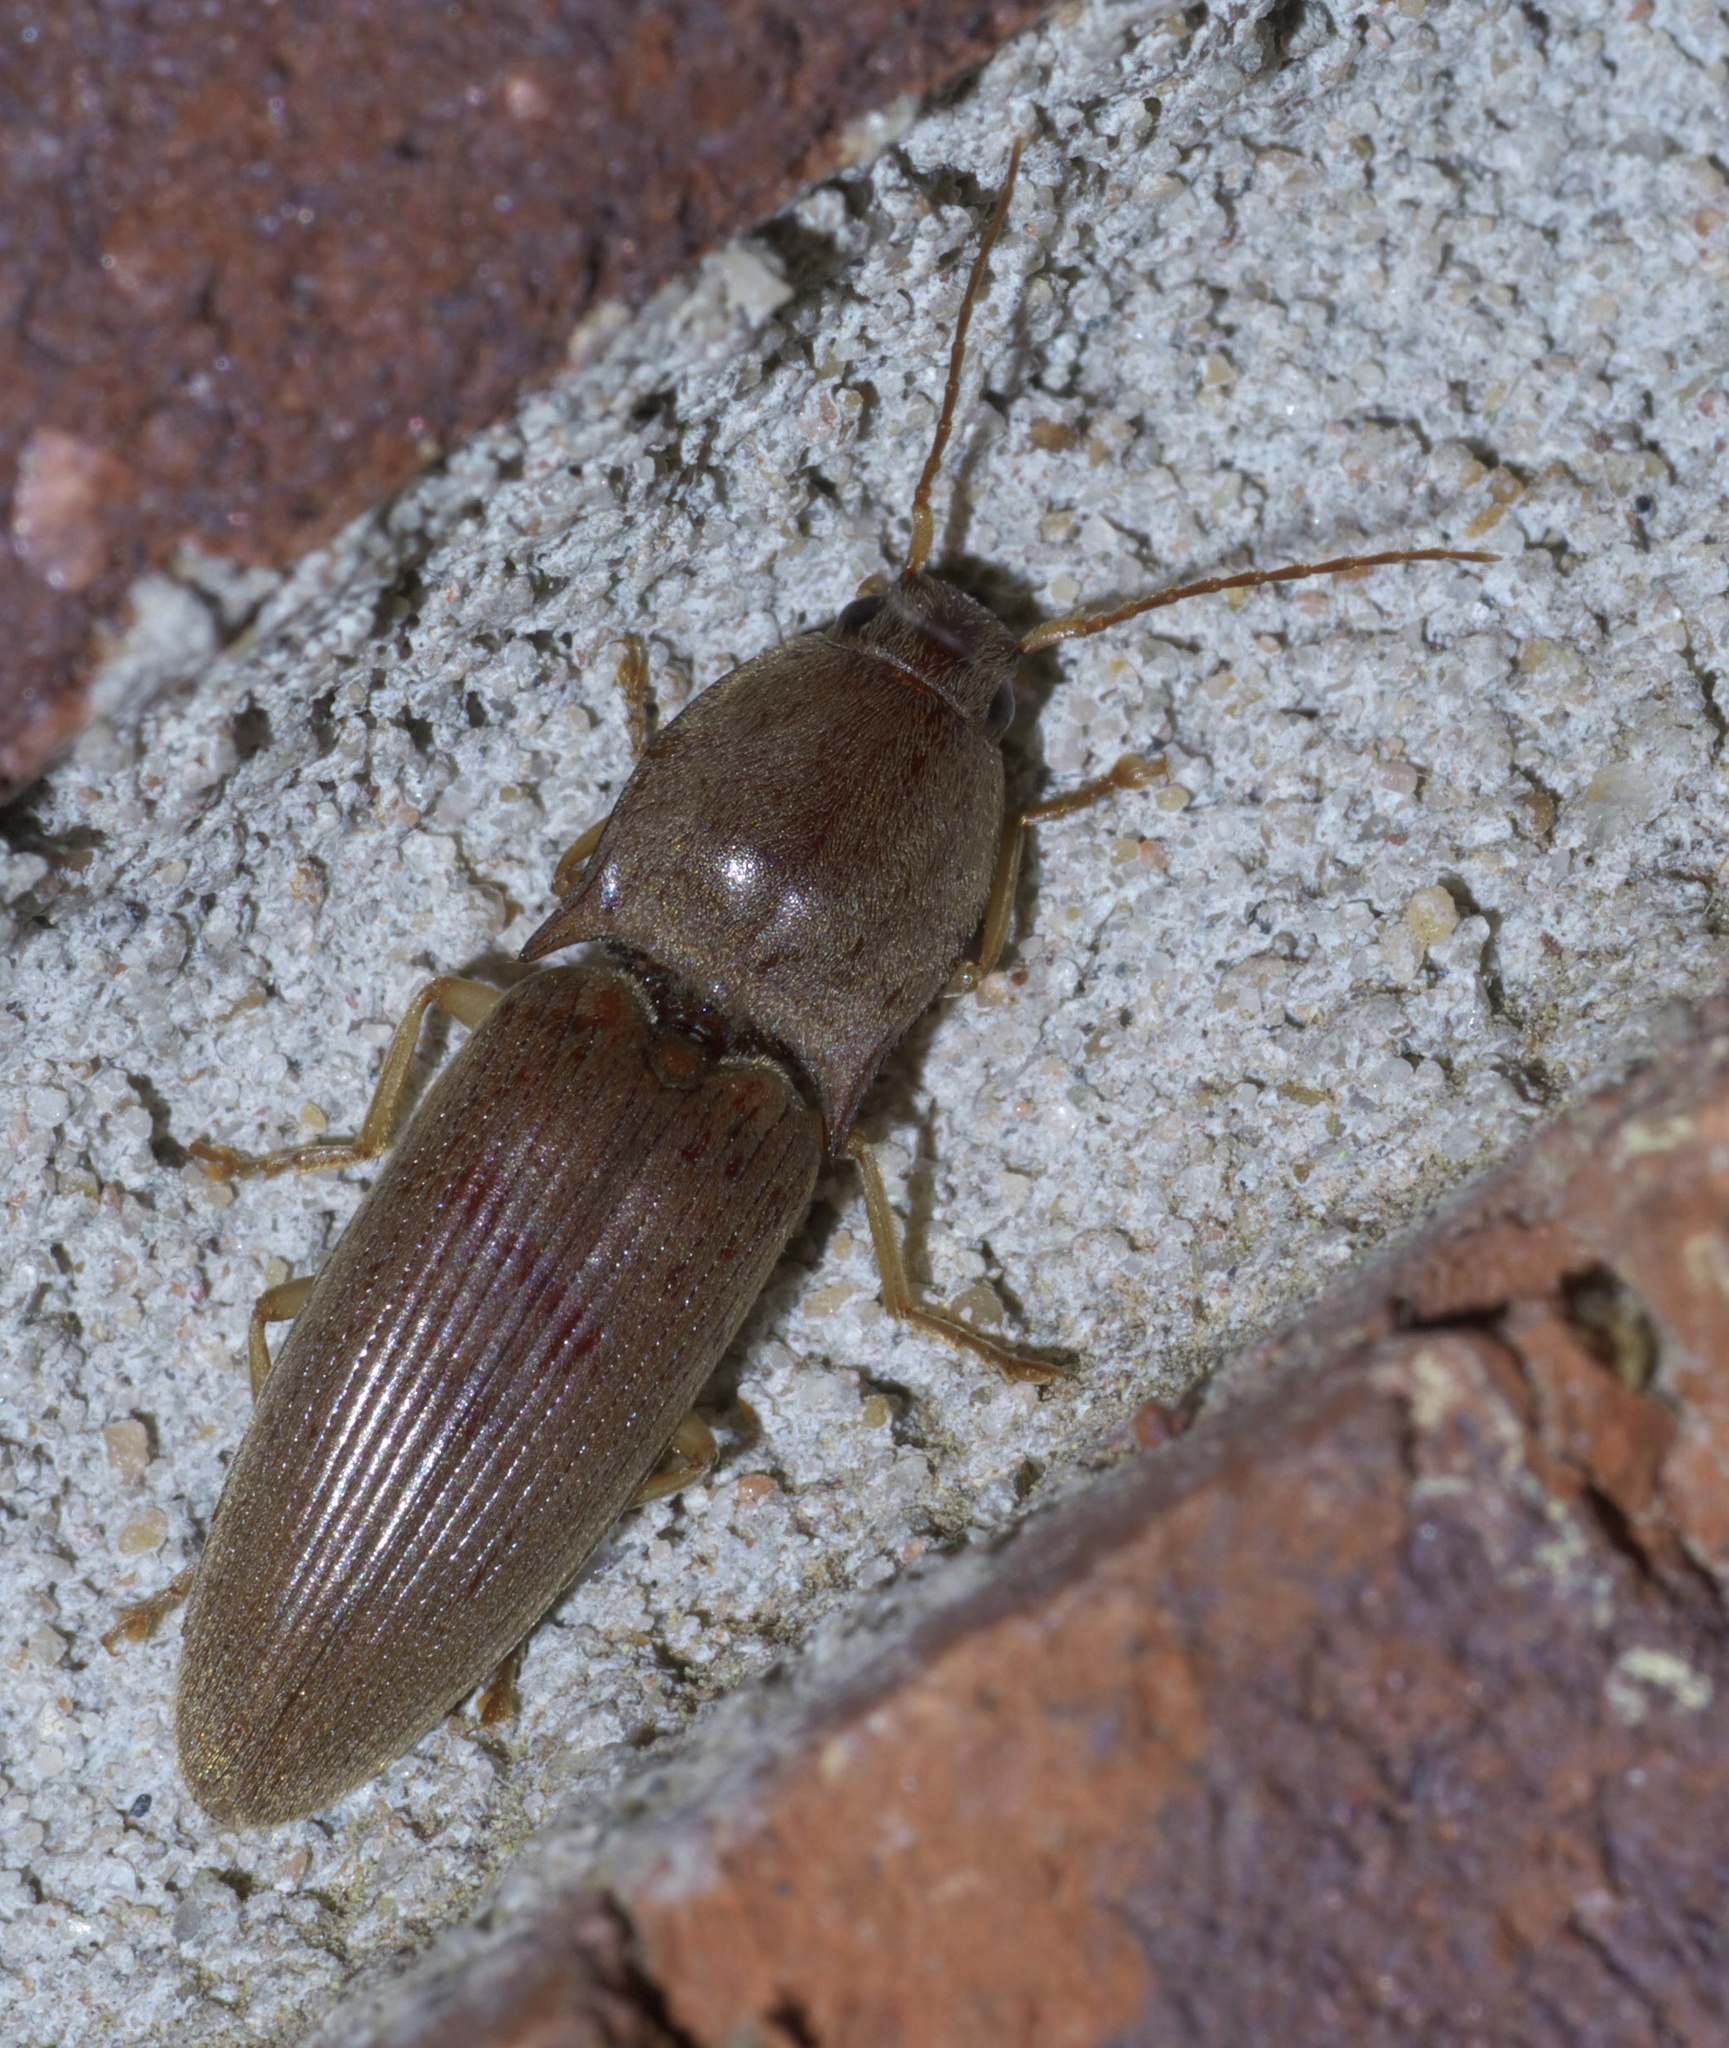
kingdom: Animalia
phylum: Arthropoda
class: Insecta
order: Coleoptera
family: Elateridae
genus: Monocrepidius
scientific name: Monocrepidius lividus
